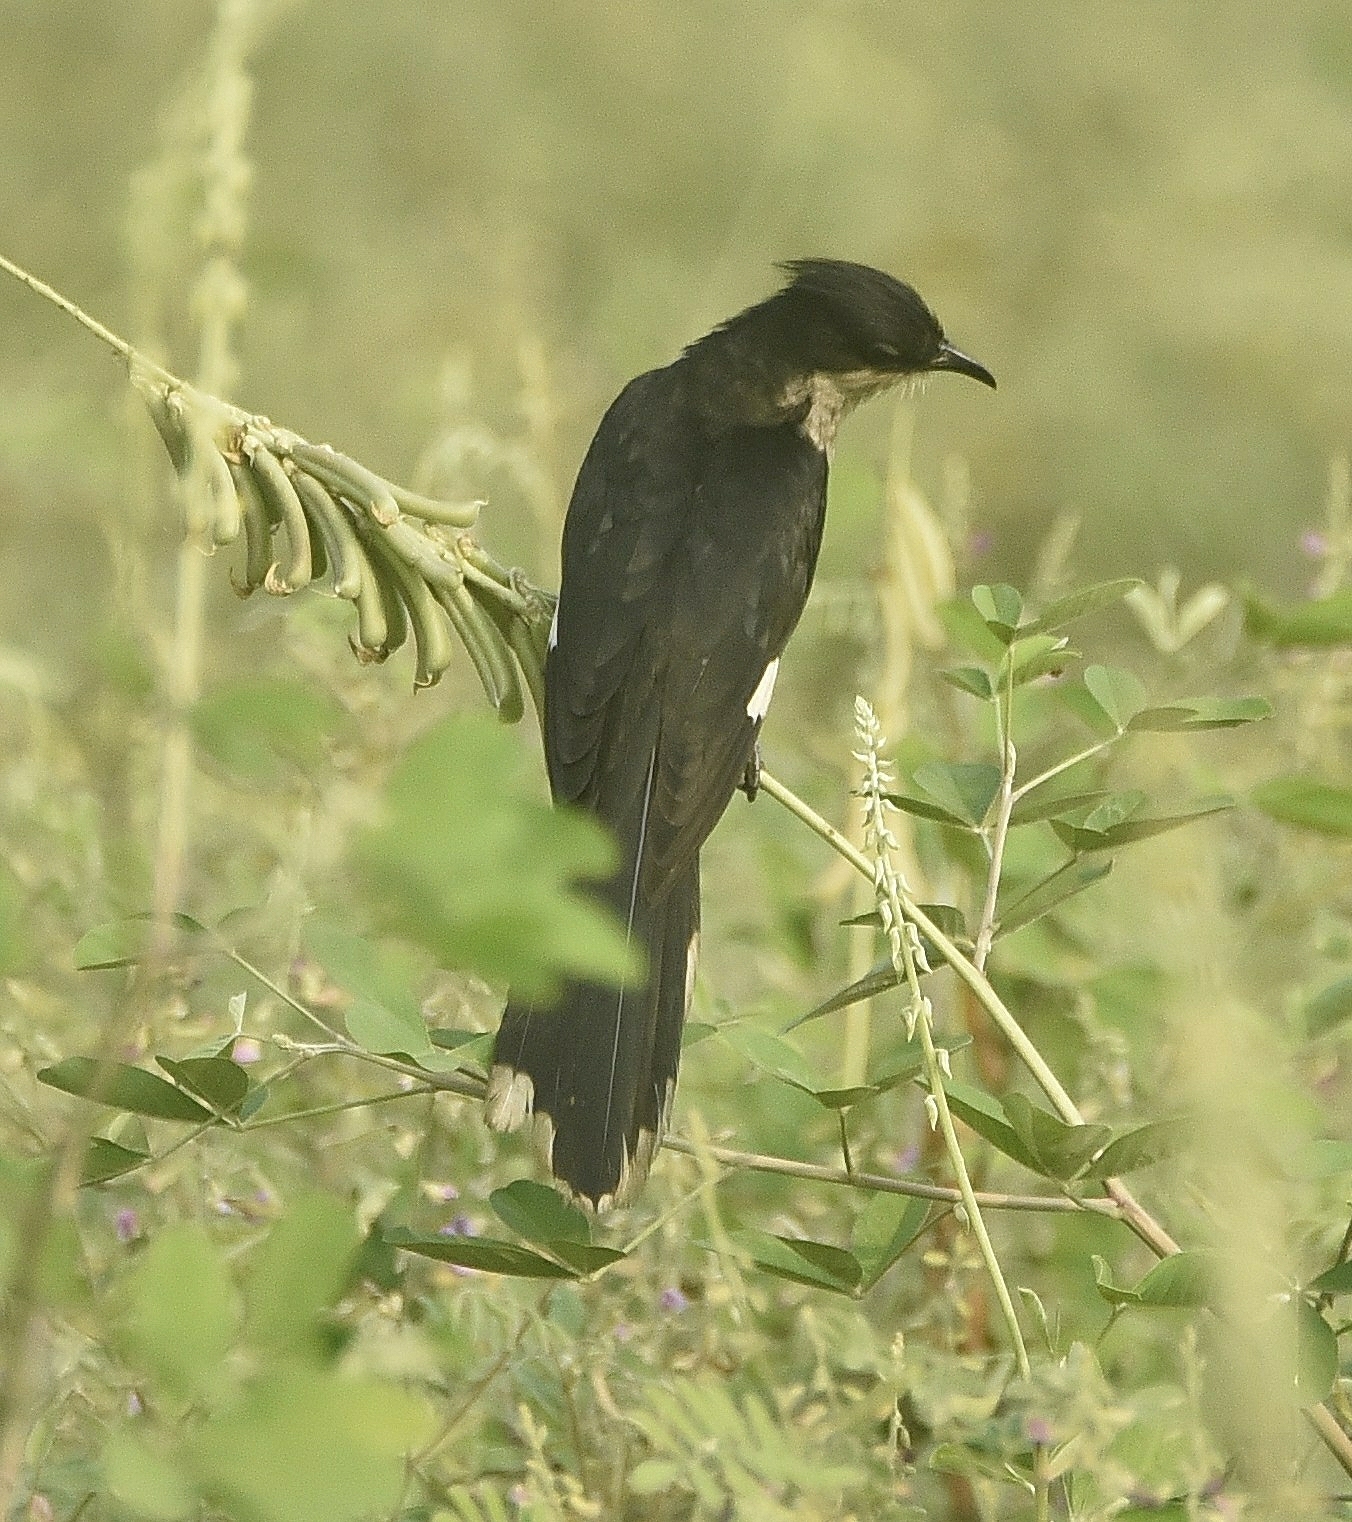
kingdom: Animalia
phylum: Chordata
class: Aves
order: Cuculiformes
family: Cuculidae
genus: Clamator
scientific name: Clamator jacobinus
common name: Jacobin cuckoo
